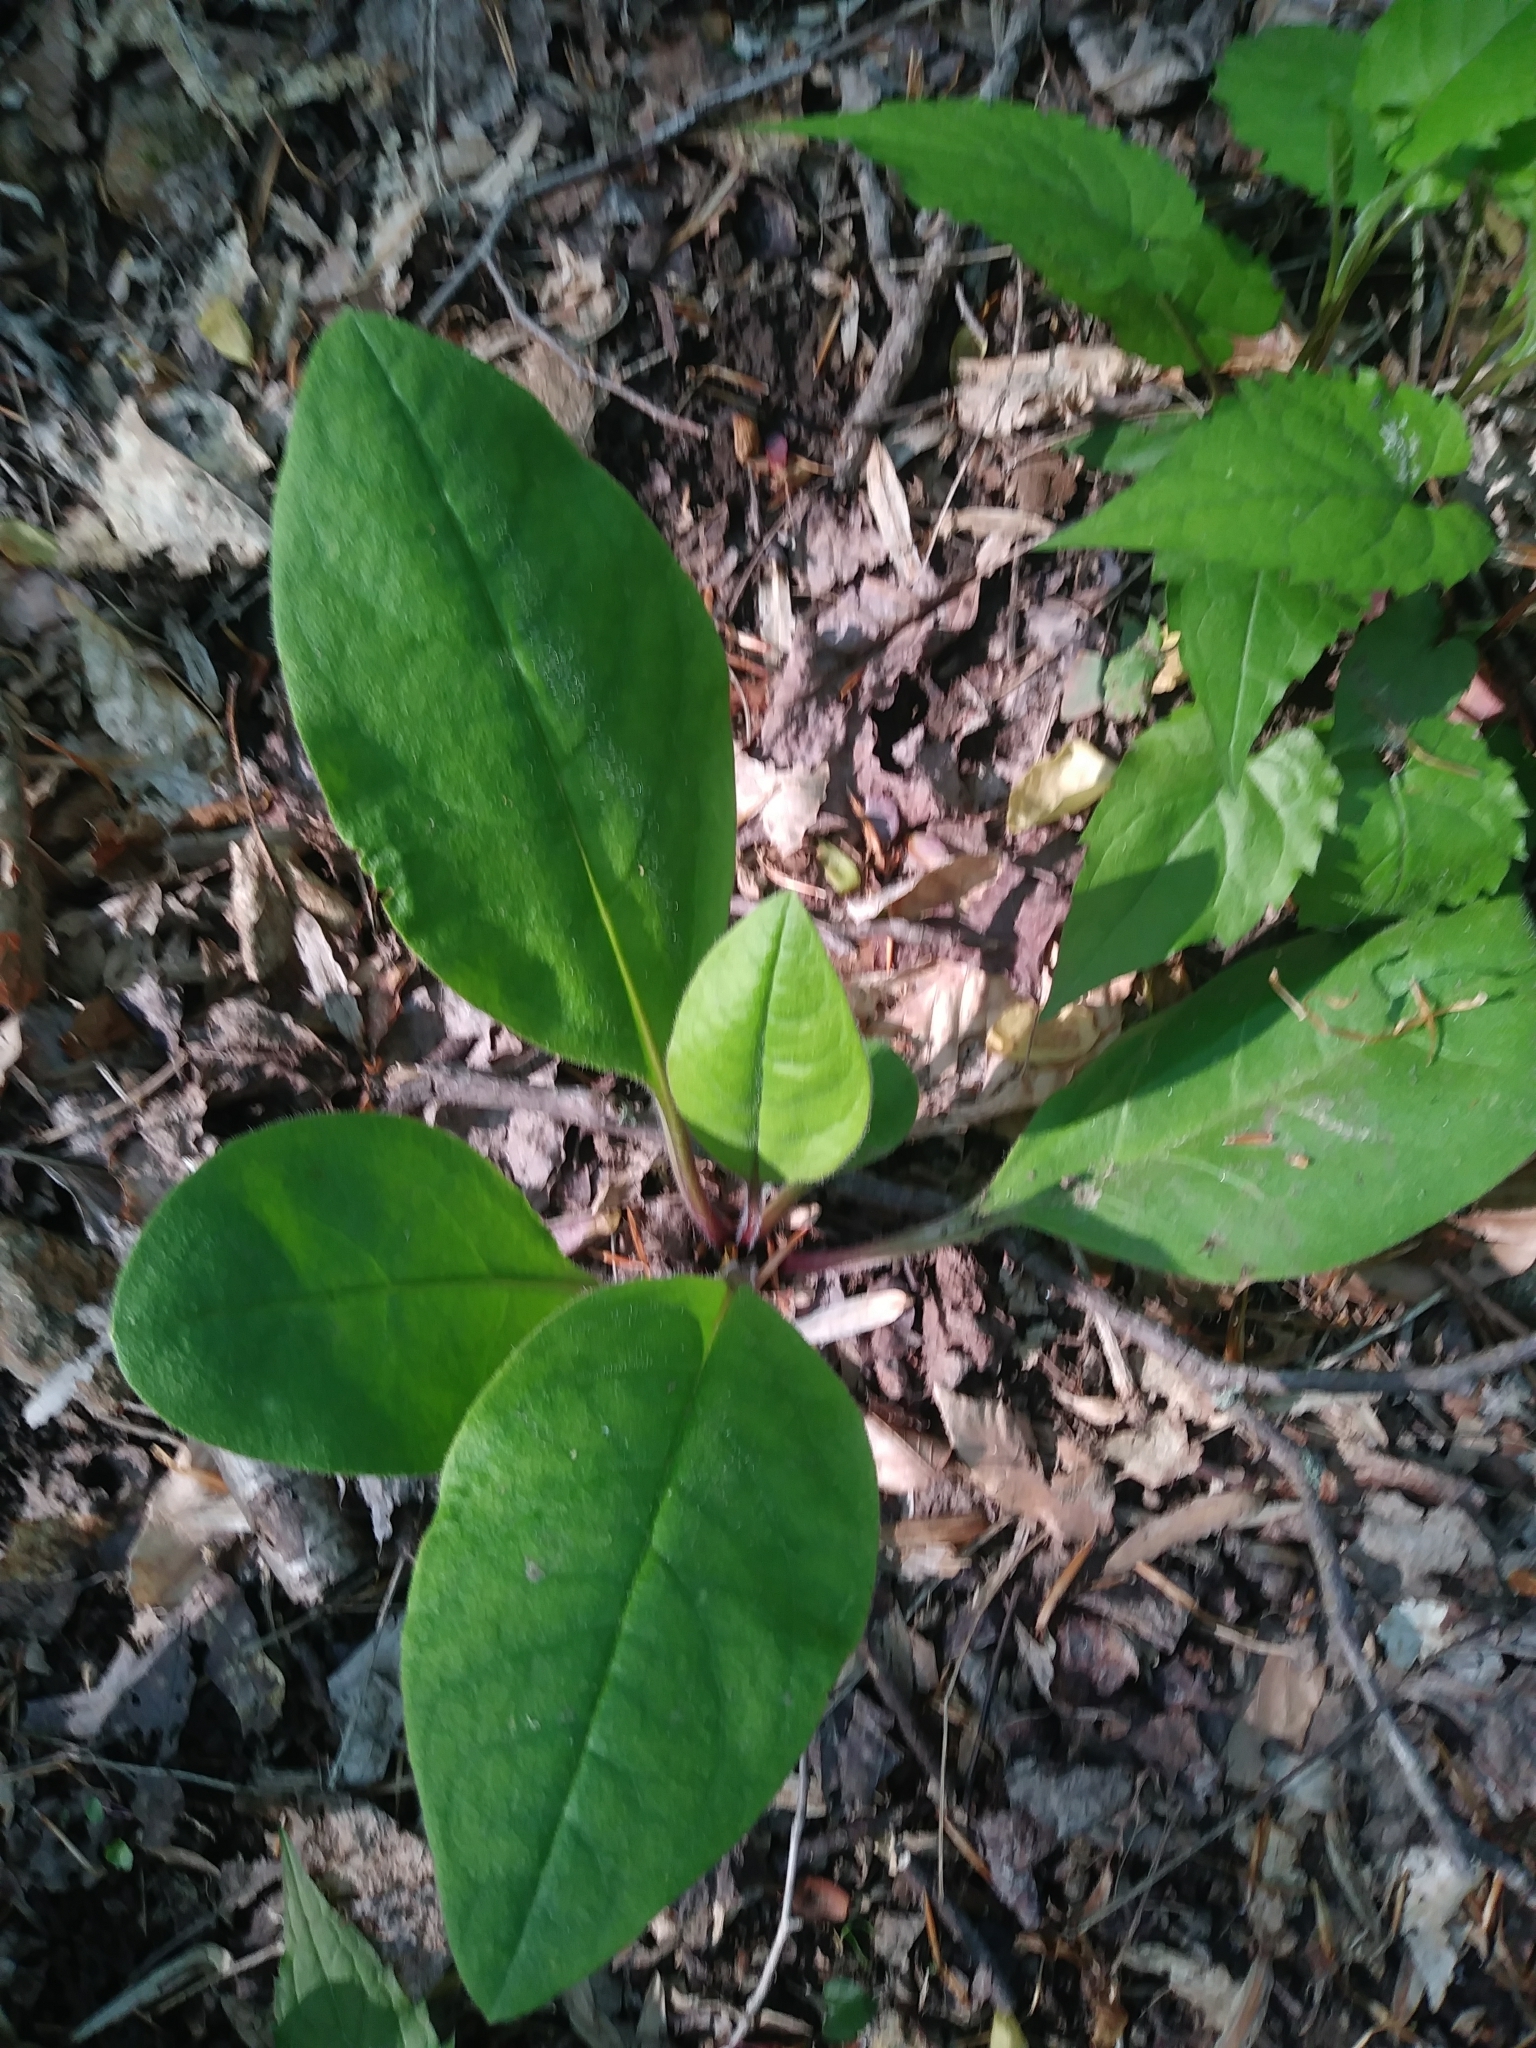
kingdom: Plantae
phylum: Tracheophyta
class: Magnoliopsida
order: Boraginales
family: Boraginaceae
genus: Andersonglossum
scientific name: Andersonglossum virginianum
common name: Wild comfrey
